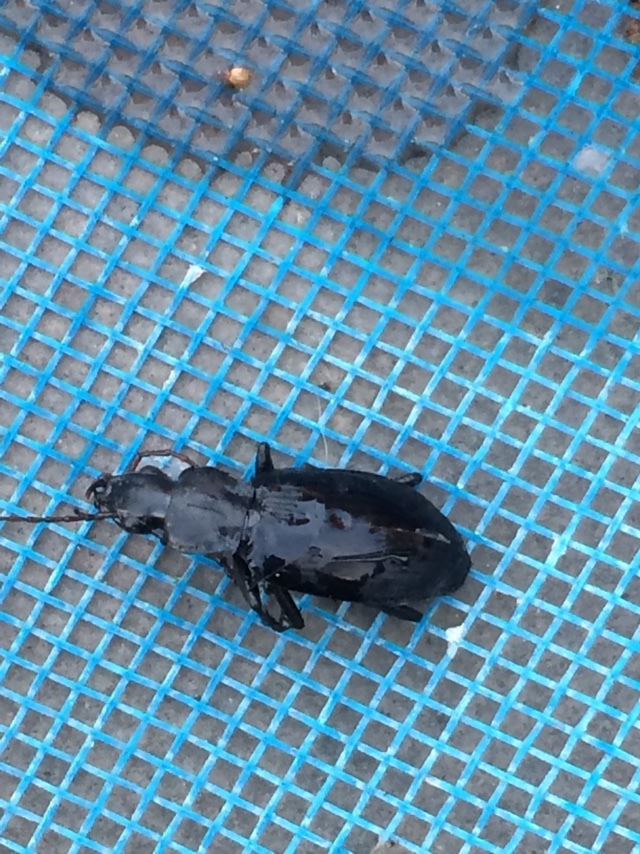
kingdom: Animalia
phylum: Arthropoda
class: Insecta
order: Coleoptera
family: Carabidae
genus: Laemostenus
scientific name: Laemostenus complanatus
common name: Cosmopolitan ground beetle
